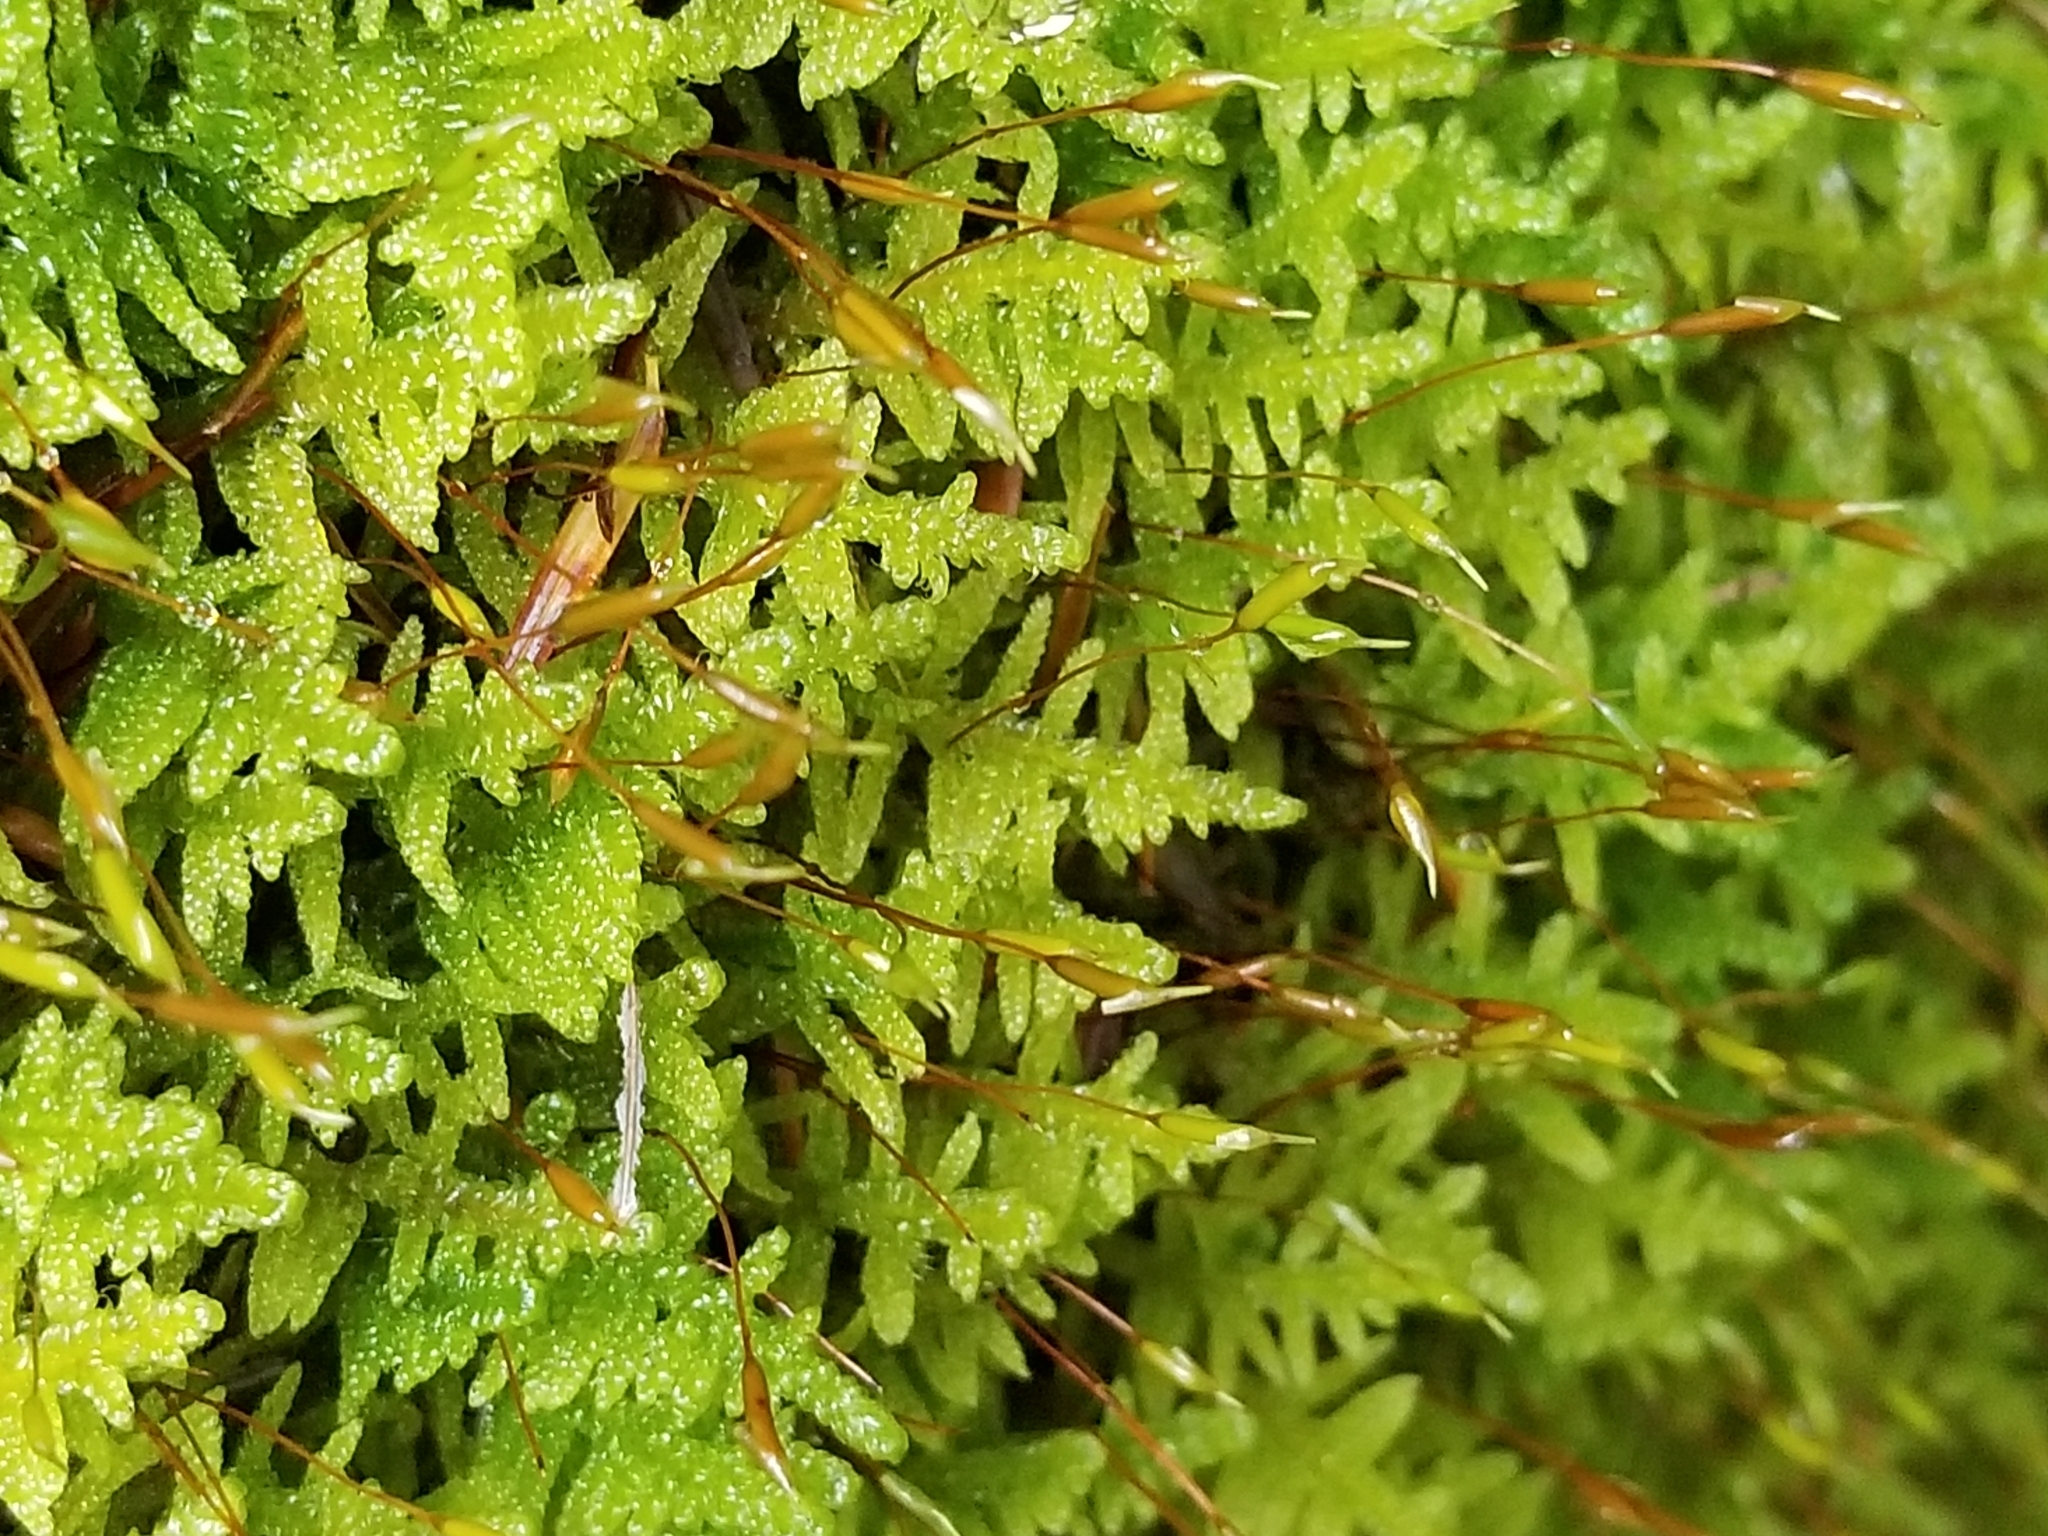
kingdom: Plantae
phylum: Bryophyta
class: Bryopsida
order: Hypnales
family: Callicladiaceae
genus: Callicladium
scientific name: Callicladium imponens
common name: Brocade moss
